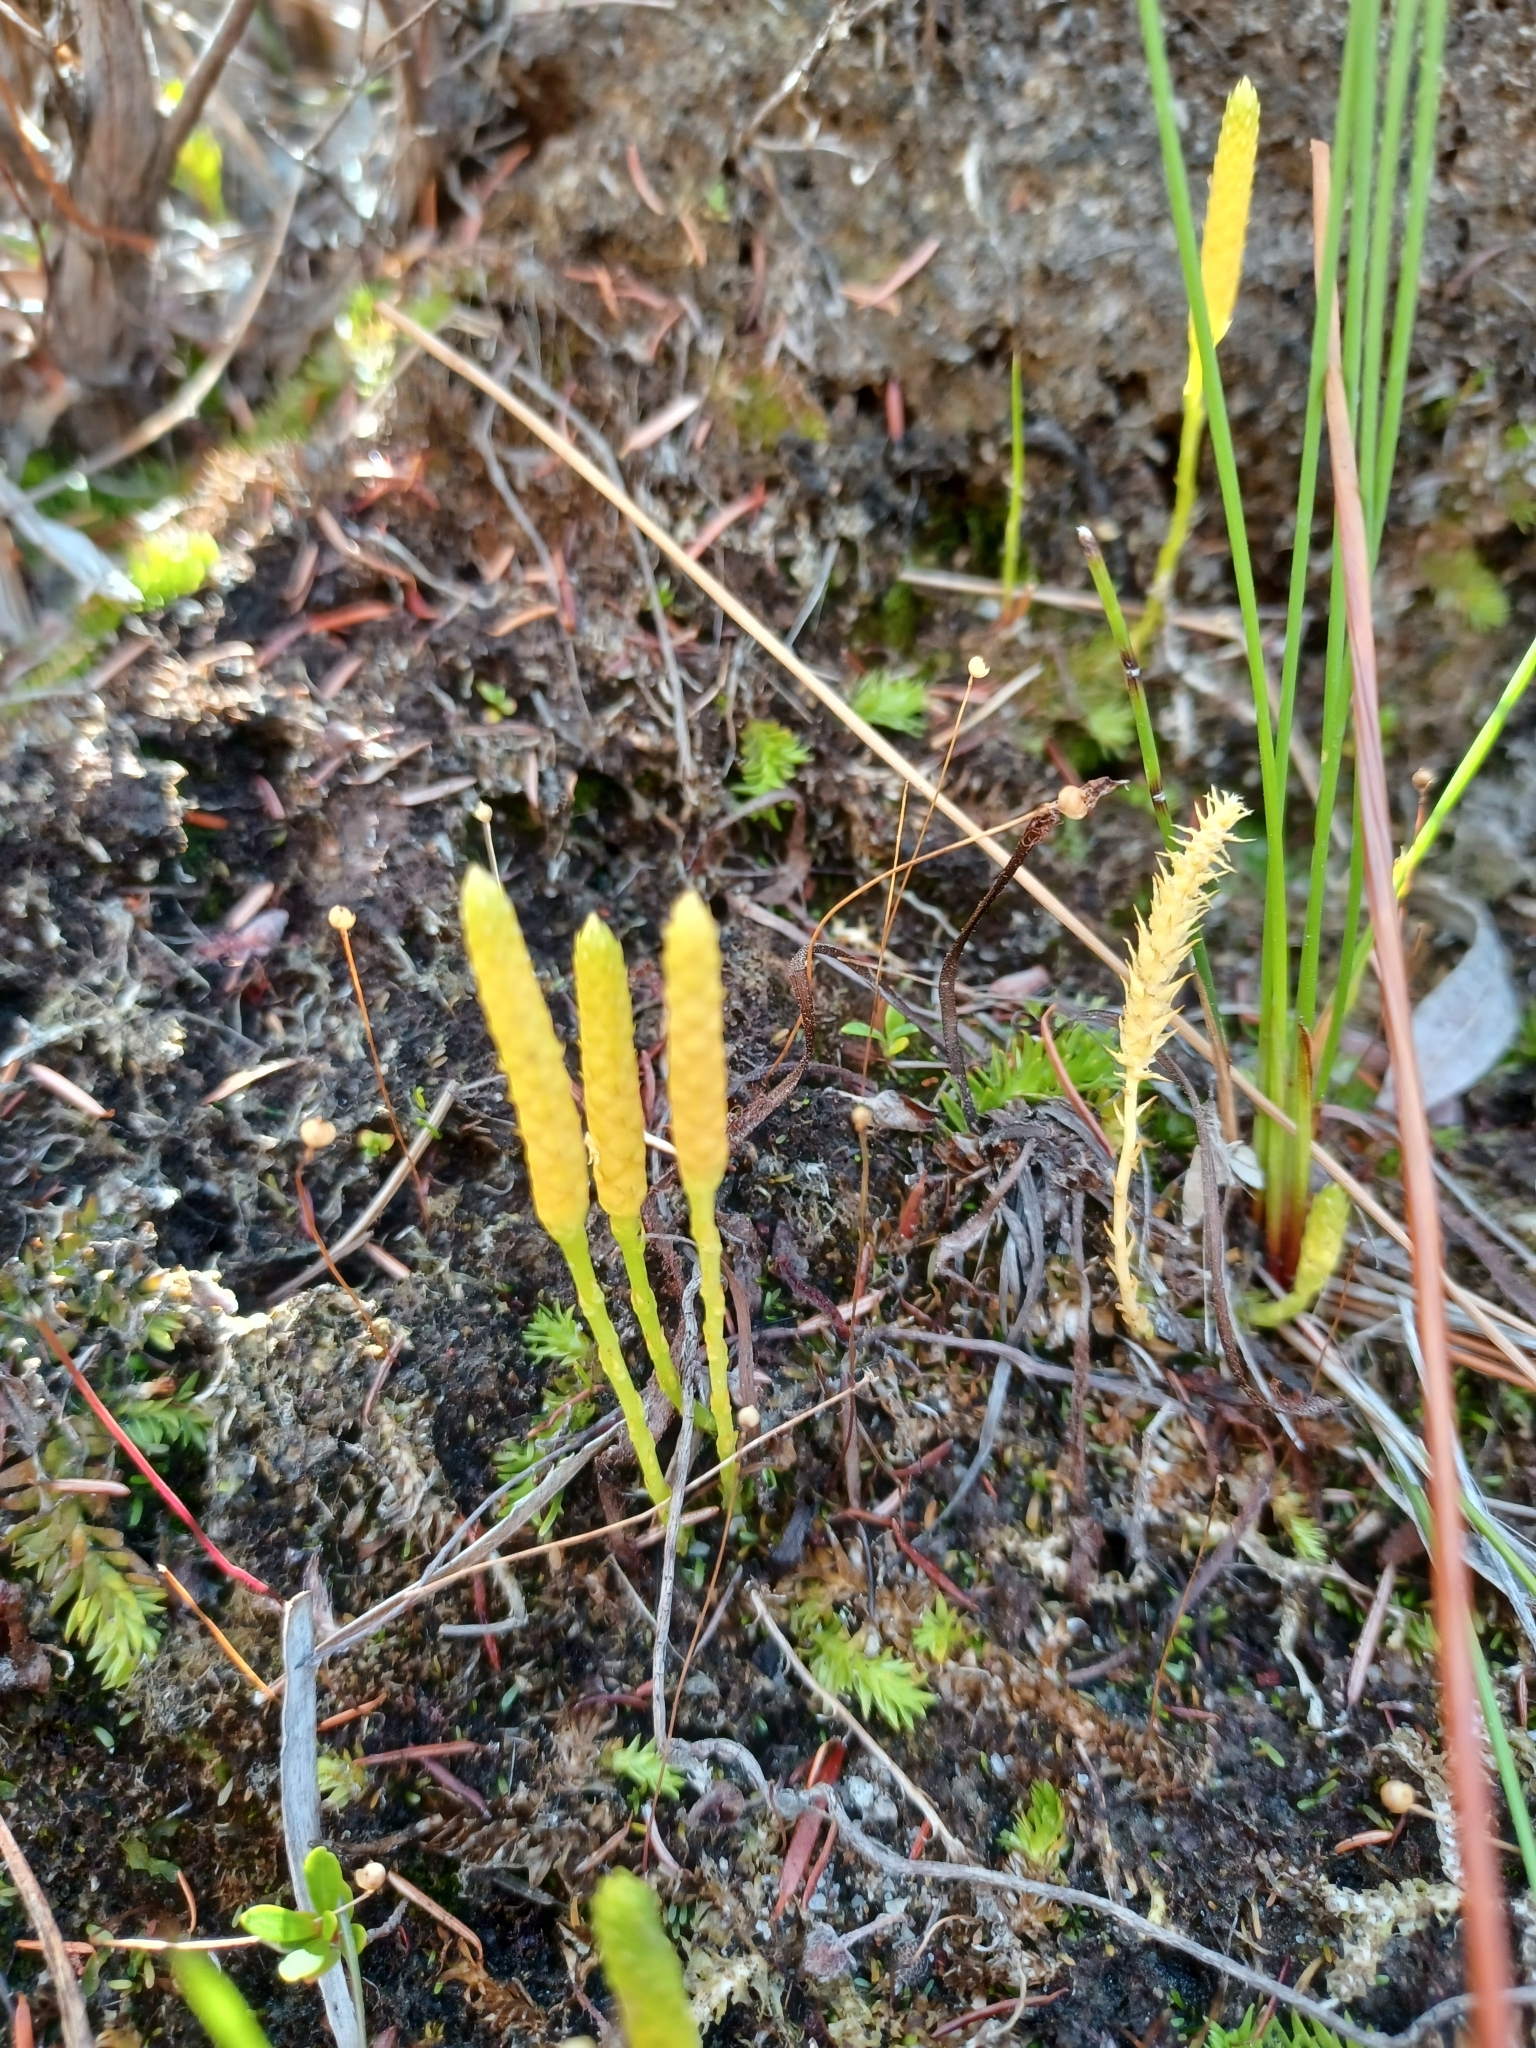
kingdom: Plantae
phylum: Tracheophyta
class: Lycopodiopsida
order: Lycopodiales
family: Lycopodiaceae
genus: Pseudolycopodiella
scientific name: Pseudolycopodiella caroliniana
